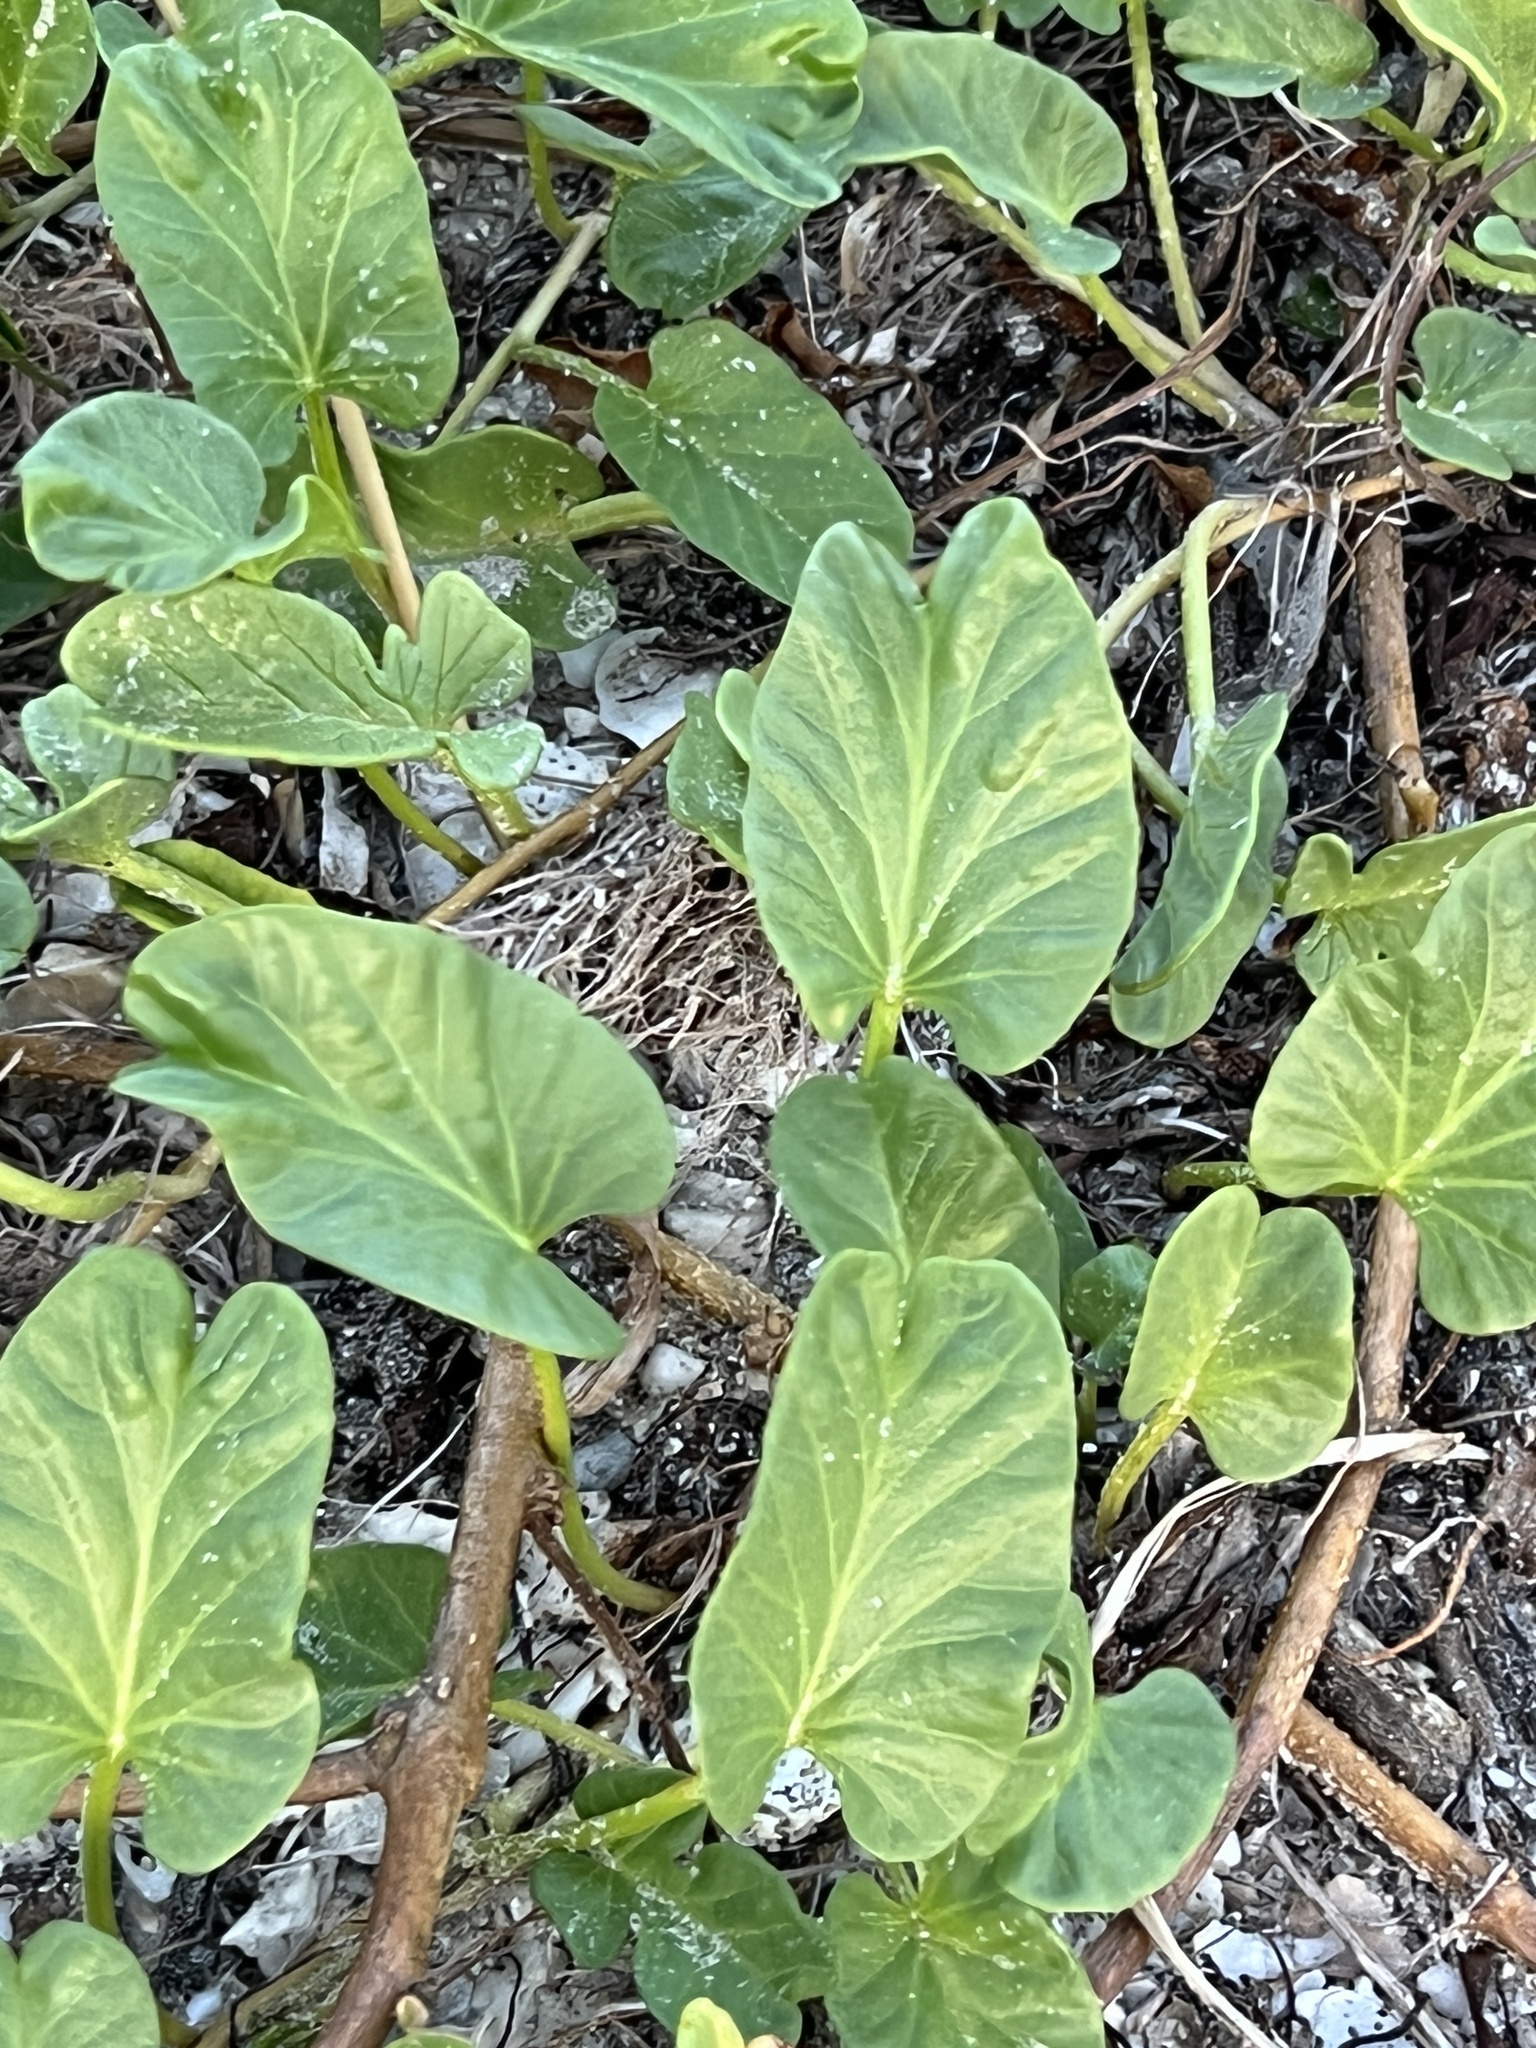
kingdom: Plantae
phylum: Tracheophyta
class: Magnoliopsida
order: Solanales
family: Convolvulaceae
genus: Ipomoea
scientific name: Ipomoea imperati
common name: Fiddle-leaf morning-glory
